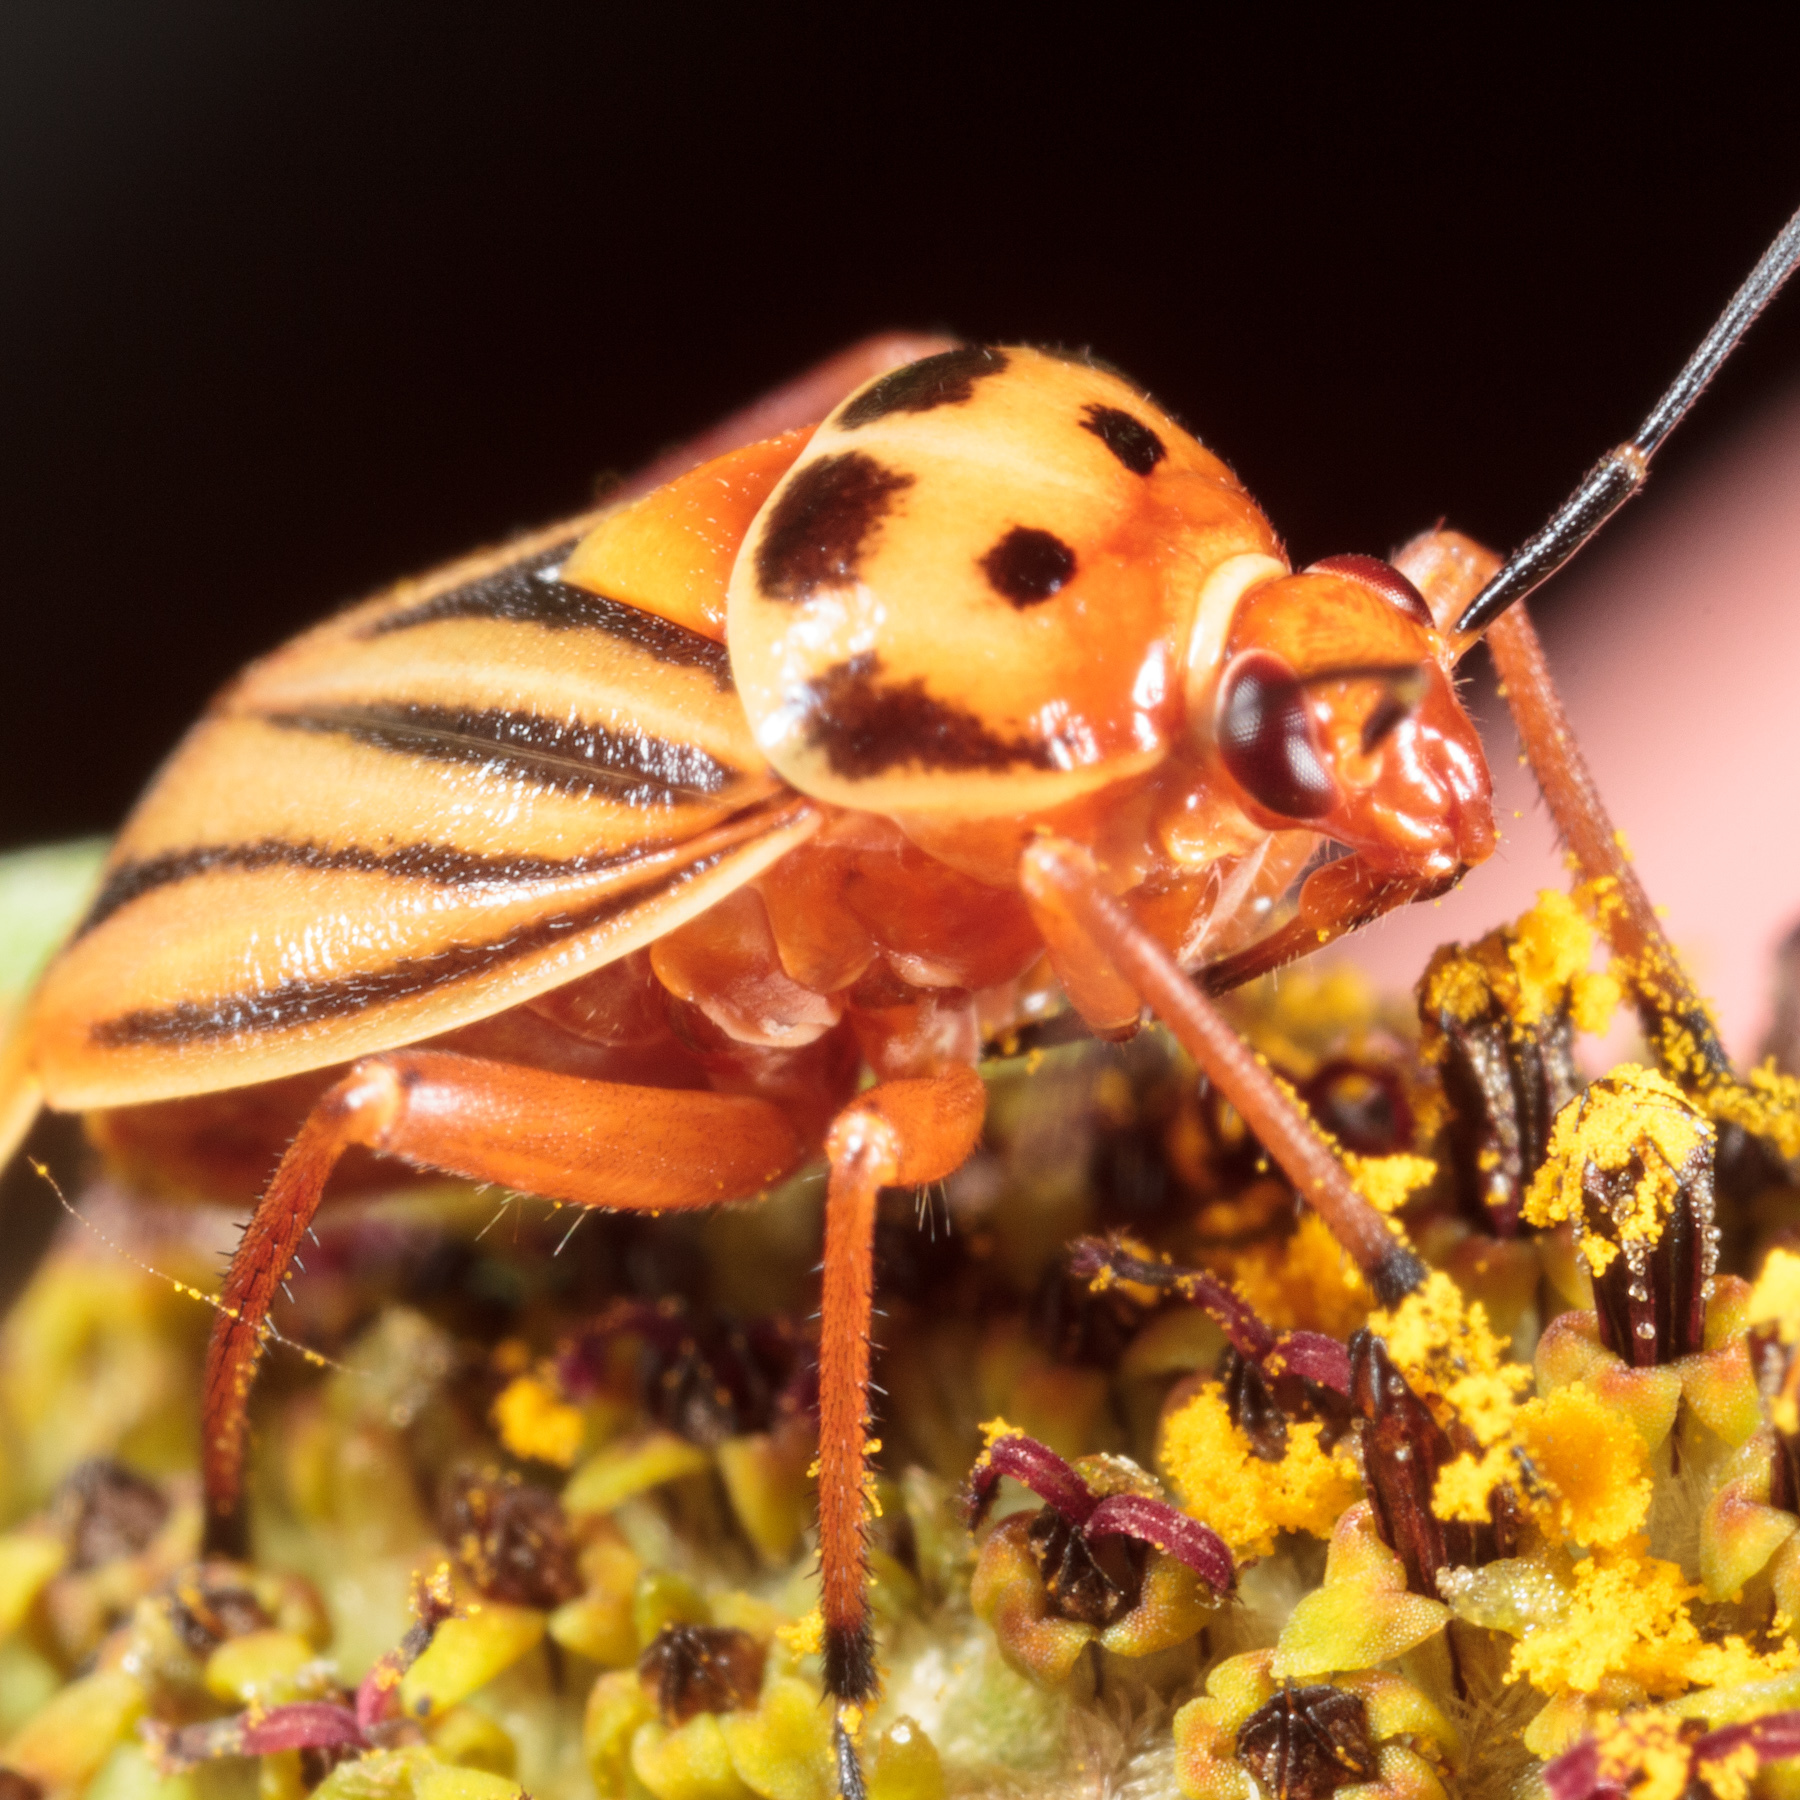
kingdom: Animalia
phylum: Arthropoda
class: Insecta
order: Hemiptera
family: Miridae
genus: Calocoris
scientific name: Calocoris barberi
